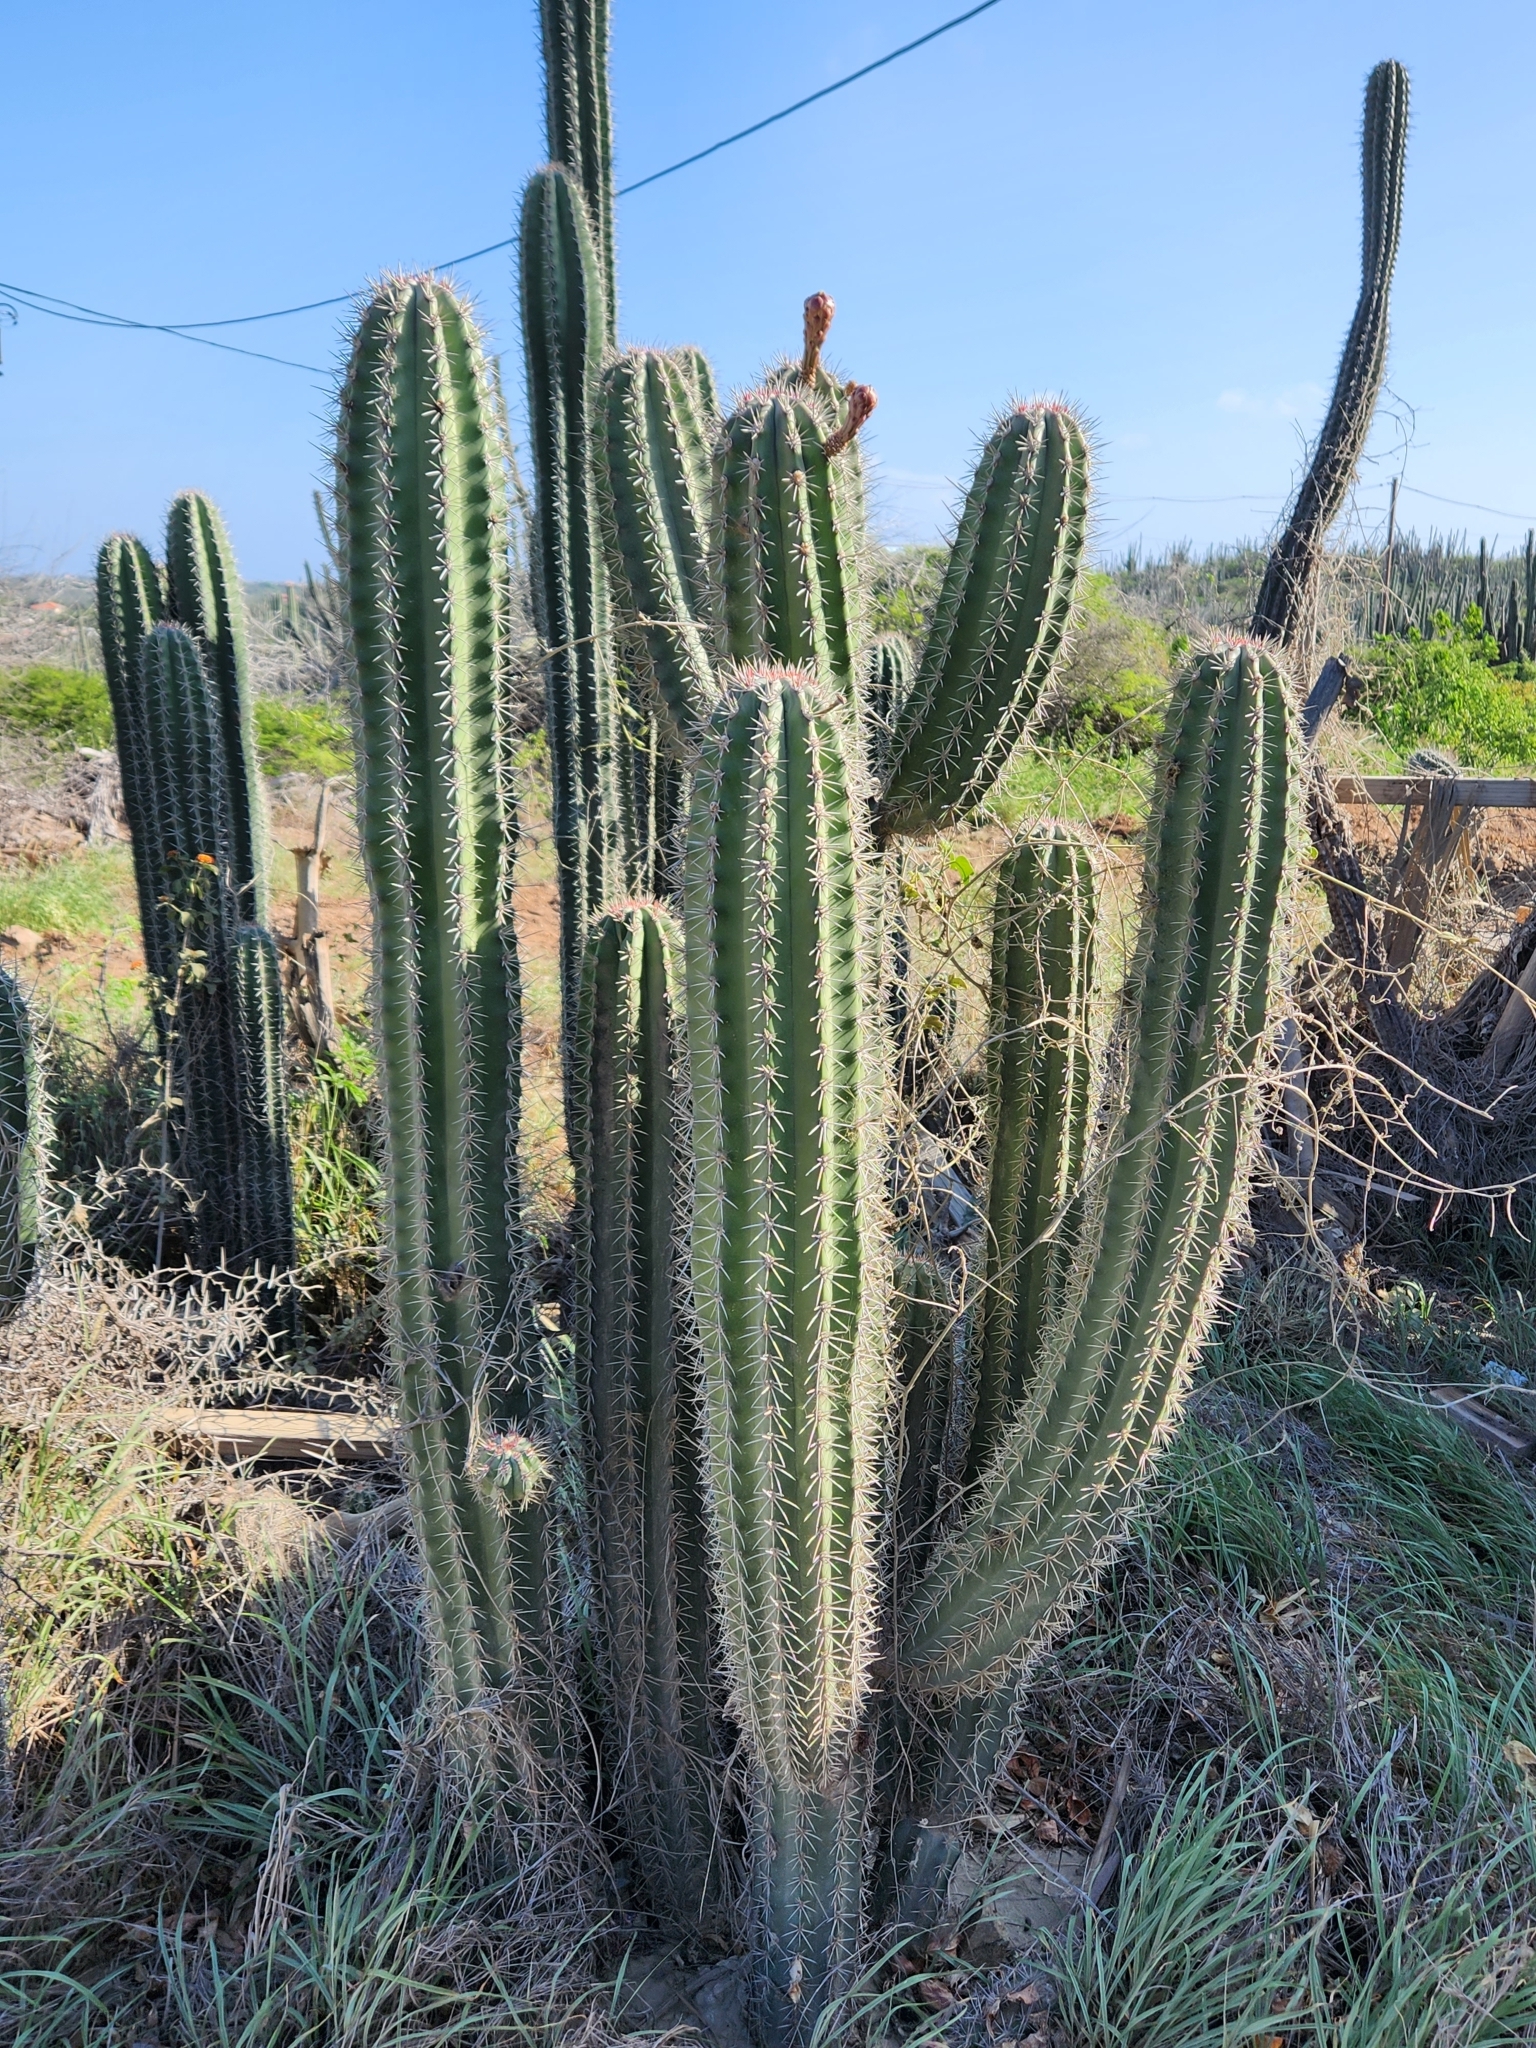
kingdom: Plantae
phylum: Tracheophyta
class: Magnoliopsida
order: Caryophyllales
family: Cactaceae
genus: Stenocereus
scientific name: Stenocereus griseus
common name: Tall candelabra cactus
